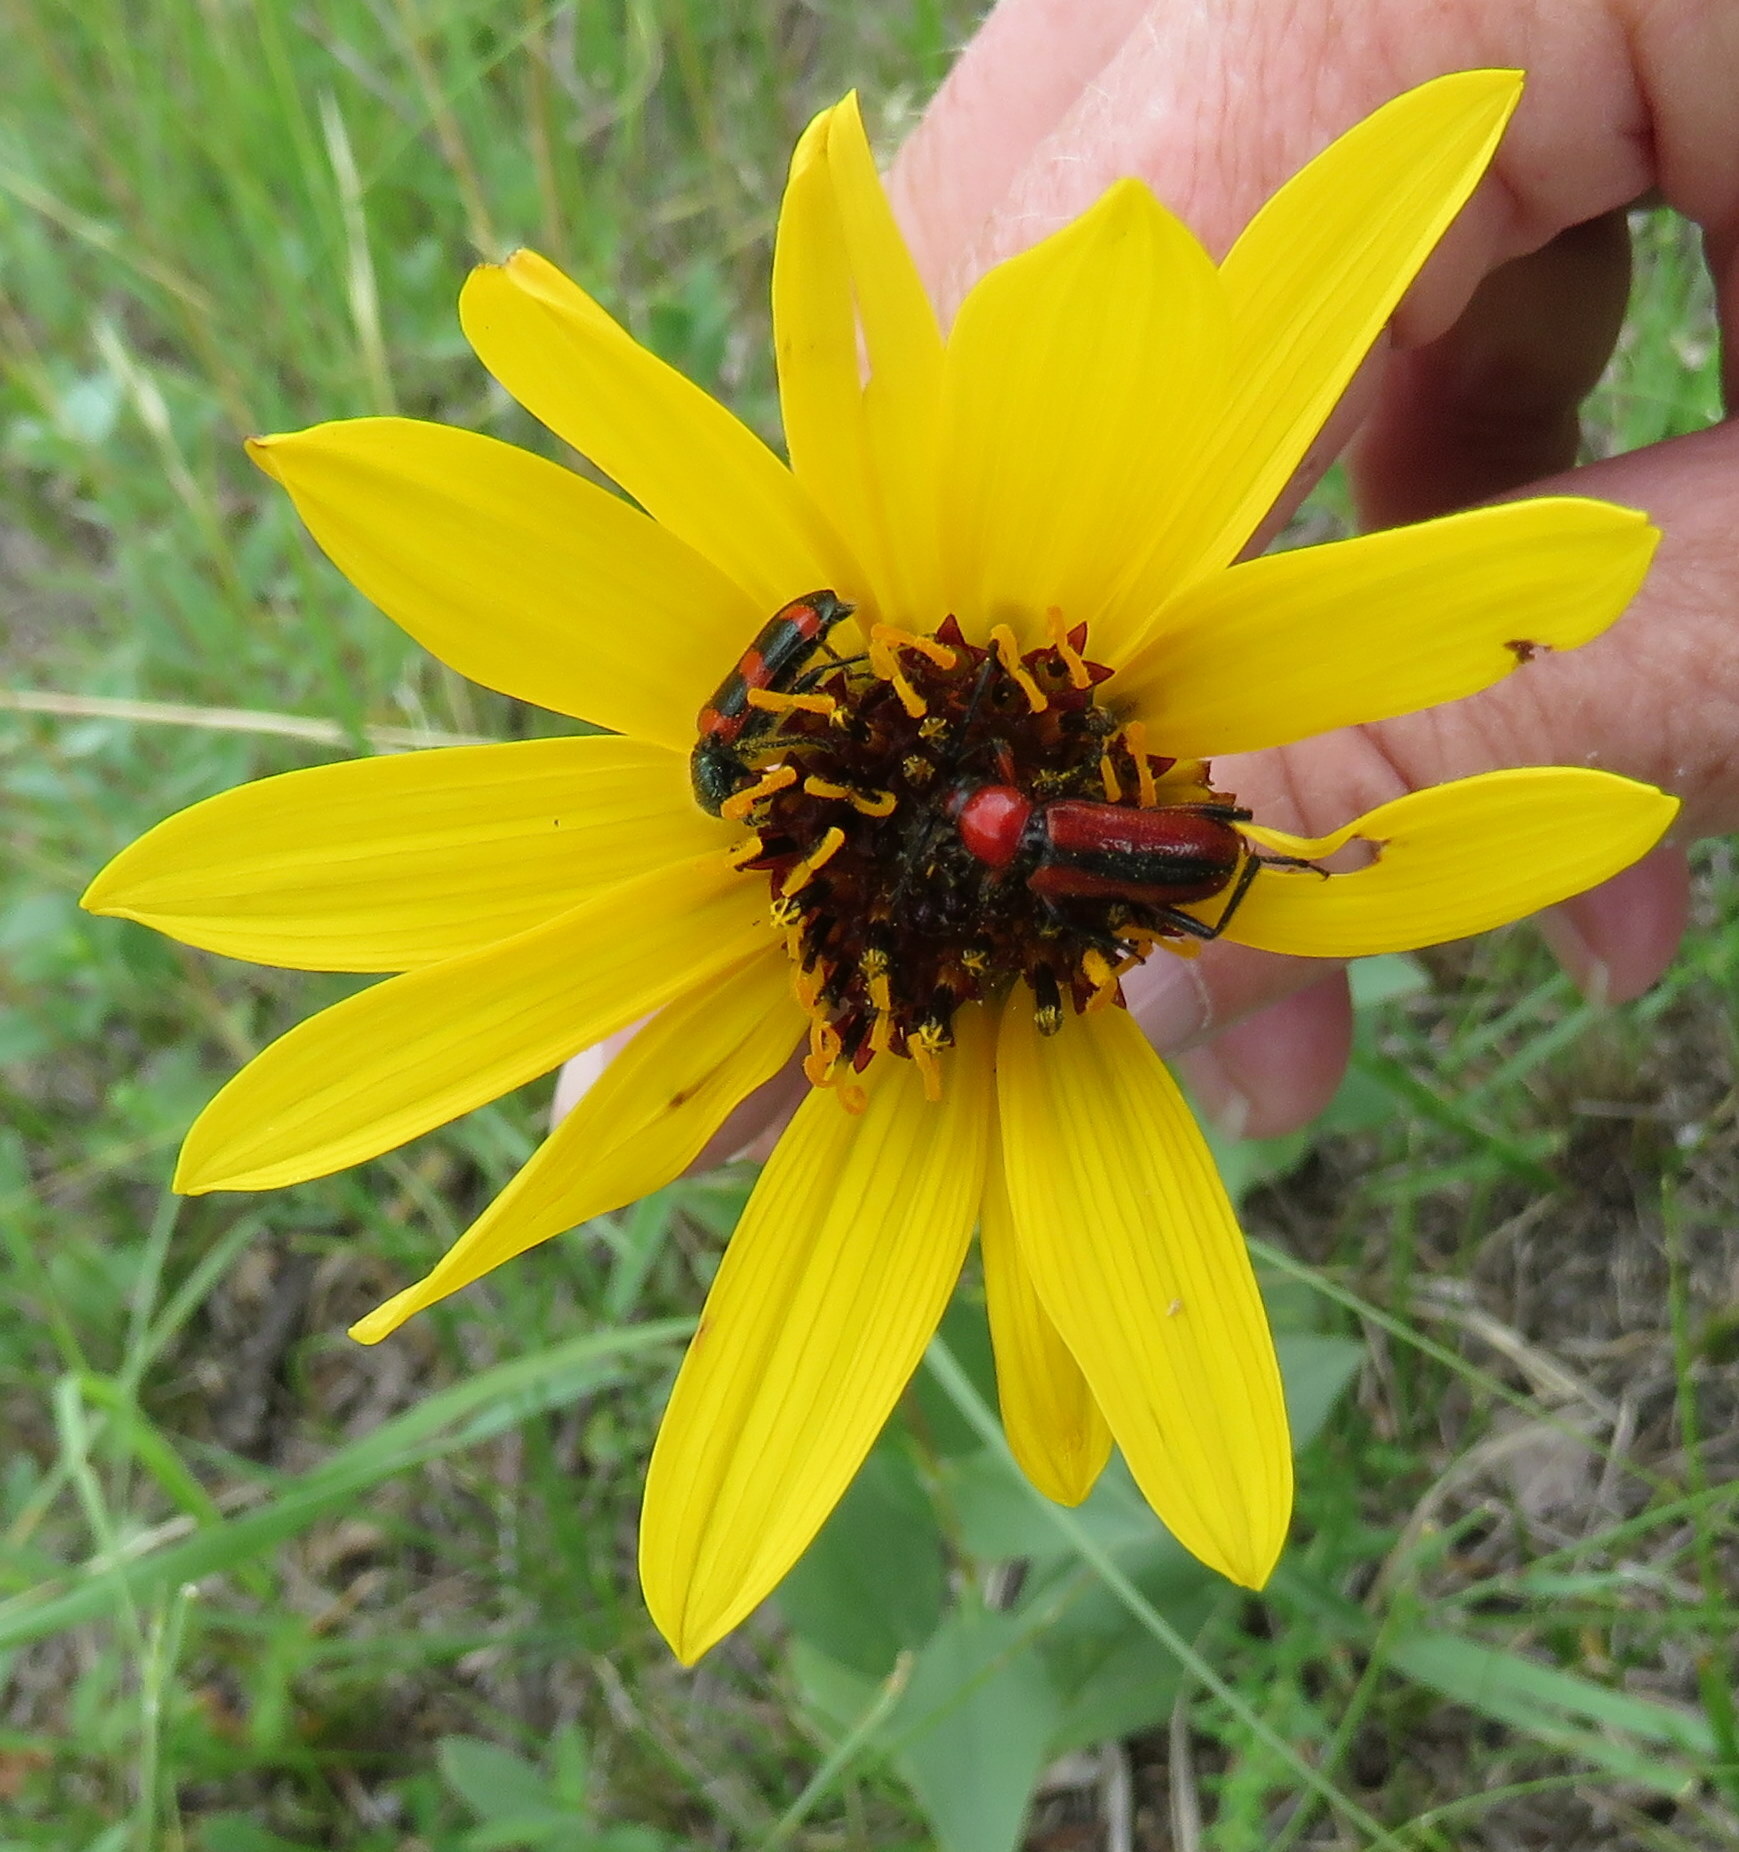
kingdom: Plantae
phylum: Tracheophyta
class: Magnoliopsida
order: Asterales
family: Asteraceae
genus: Helianthus
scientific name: Helianthus pauciflorus
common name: Stiff sunflower
